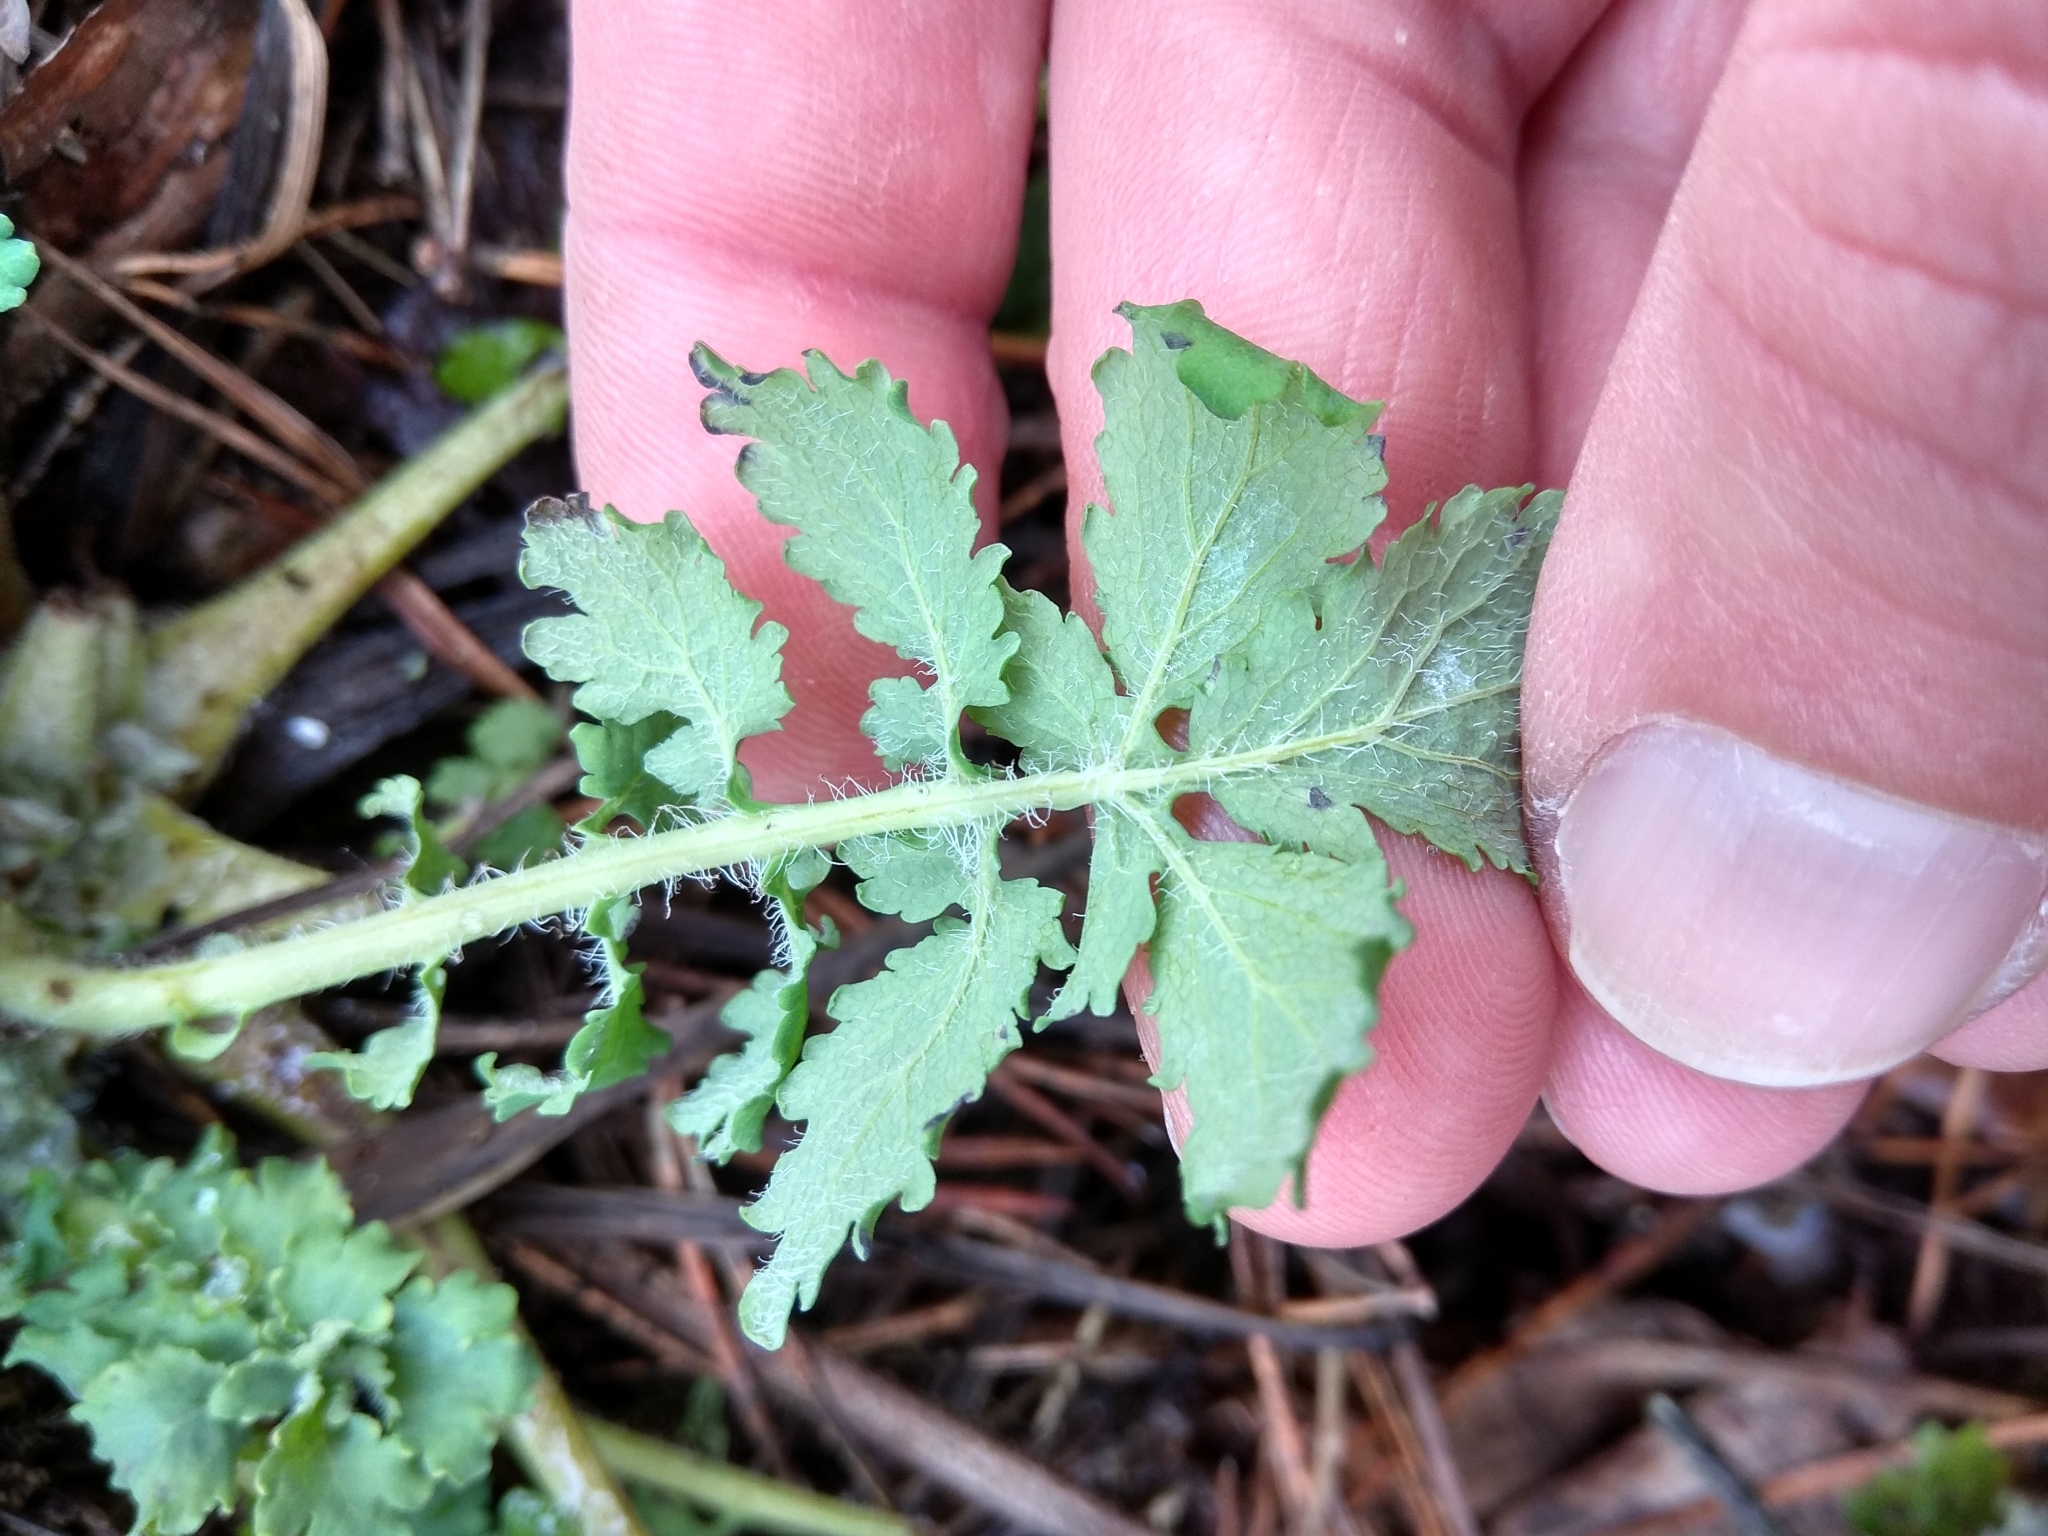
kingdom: Plantae
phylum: Tracheophyta
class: Magnoliopsida
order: Ranunculales
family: Papaveraceae
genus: Chelidonium
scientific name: Chelidonium majus
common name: Greater celandine
